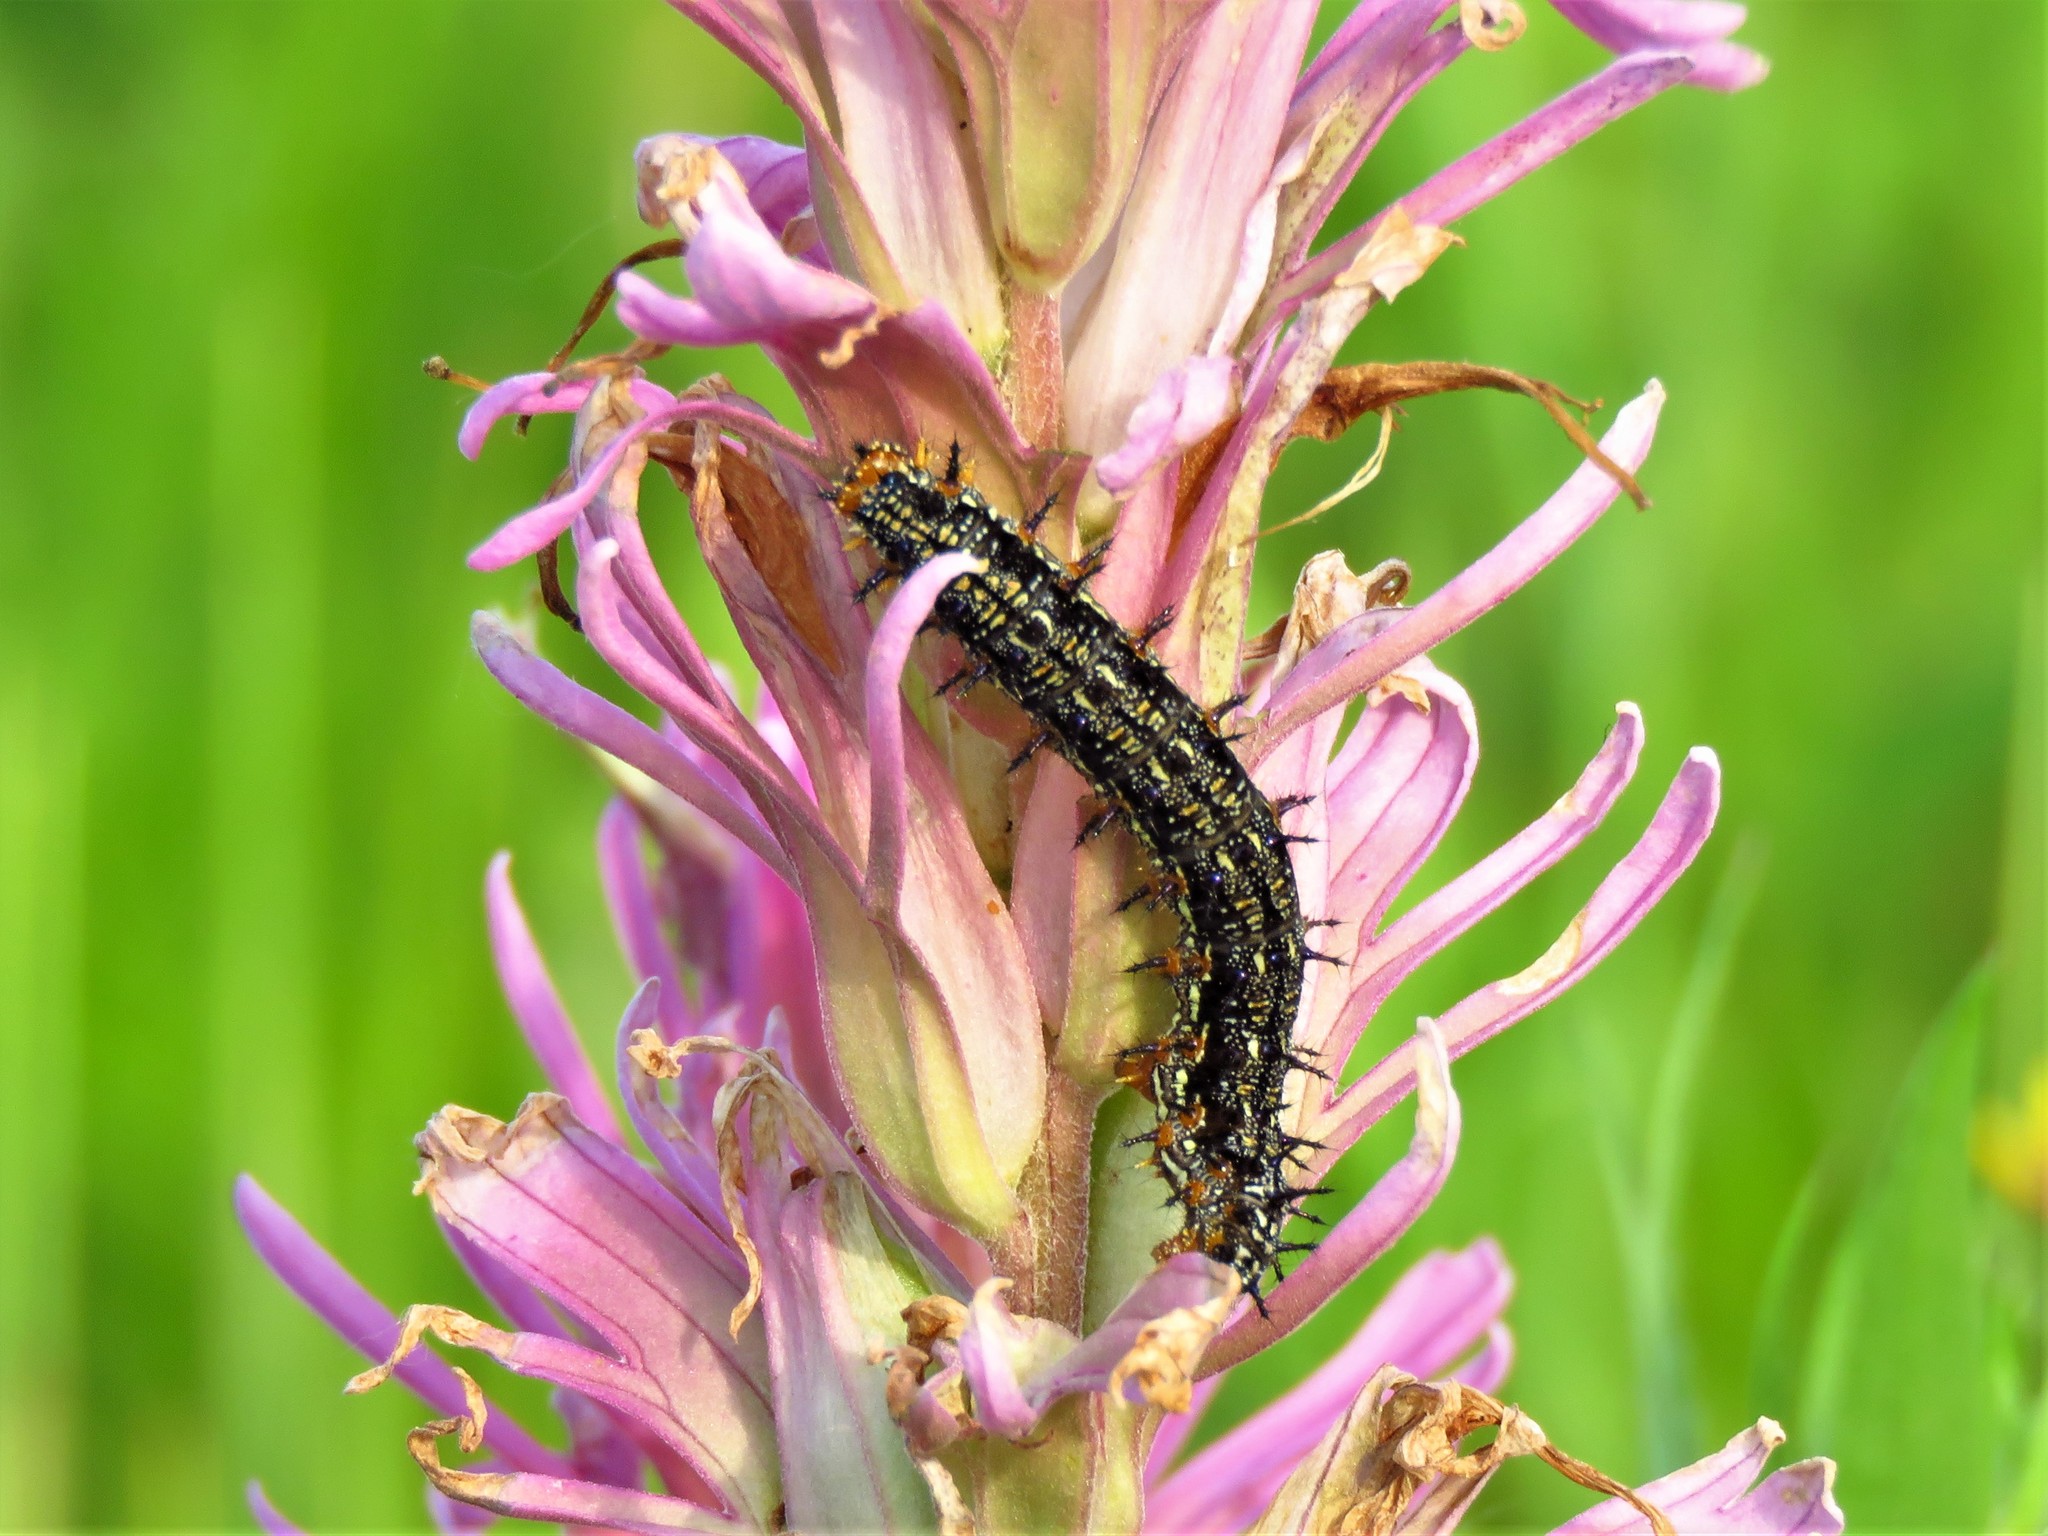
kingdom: Animalia
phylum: Arthropoda
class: Insecta
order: Lepidoptera
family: Nymphalidae
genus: Junonia
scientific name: Junonia coenia
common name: Common buckeye
